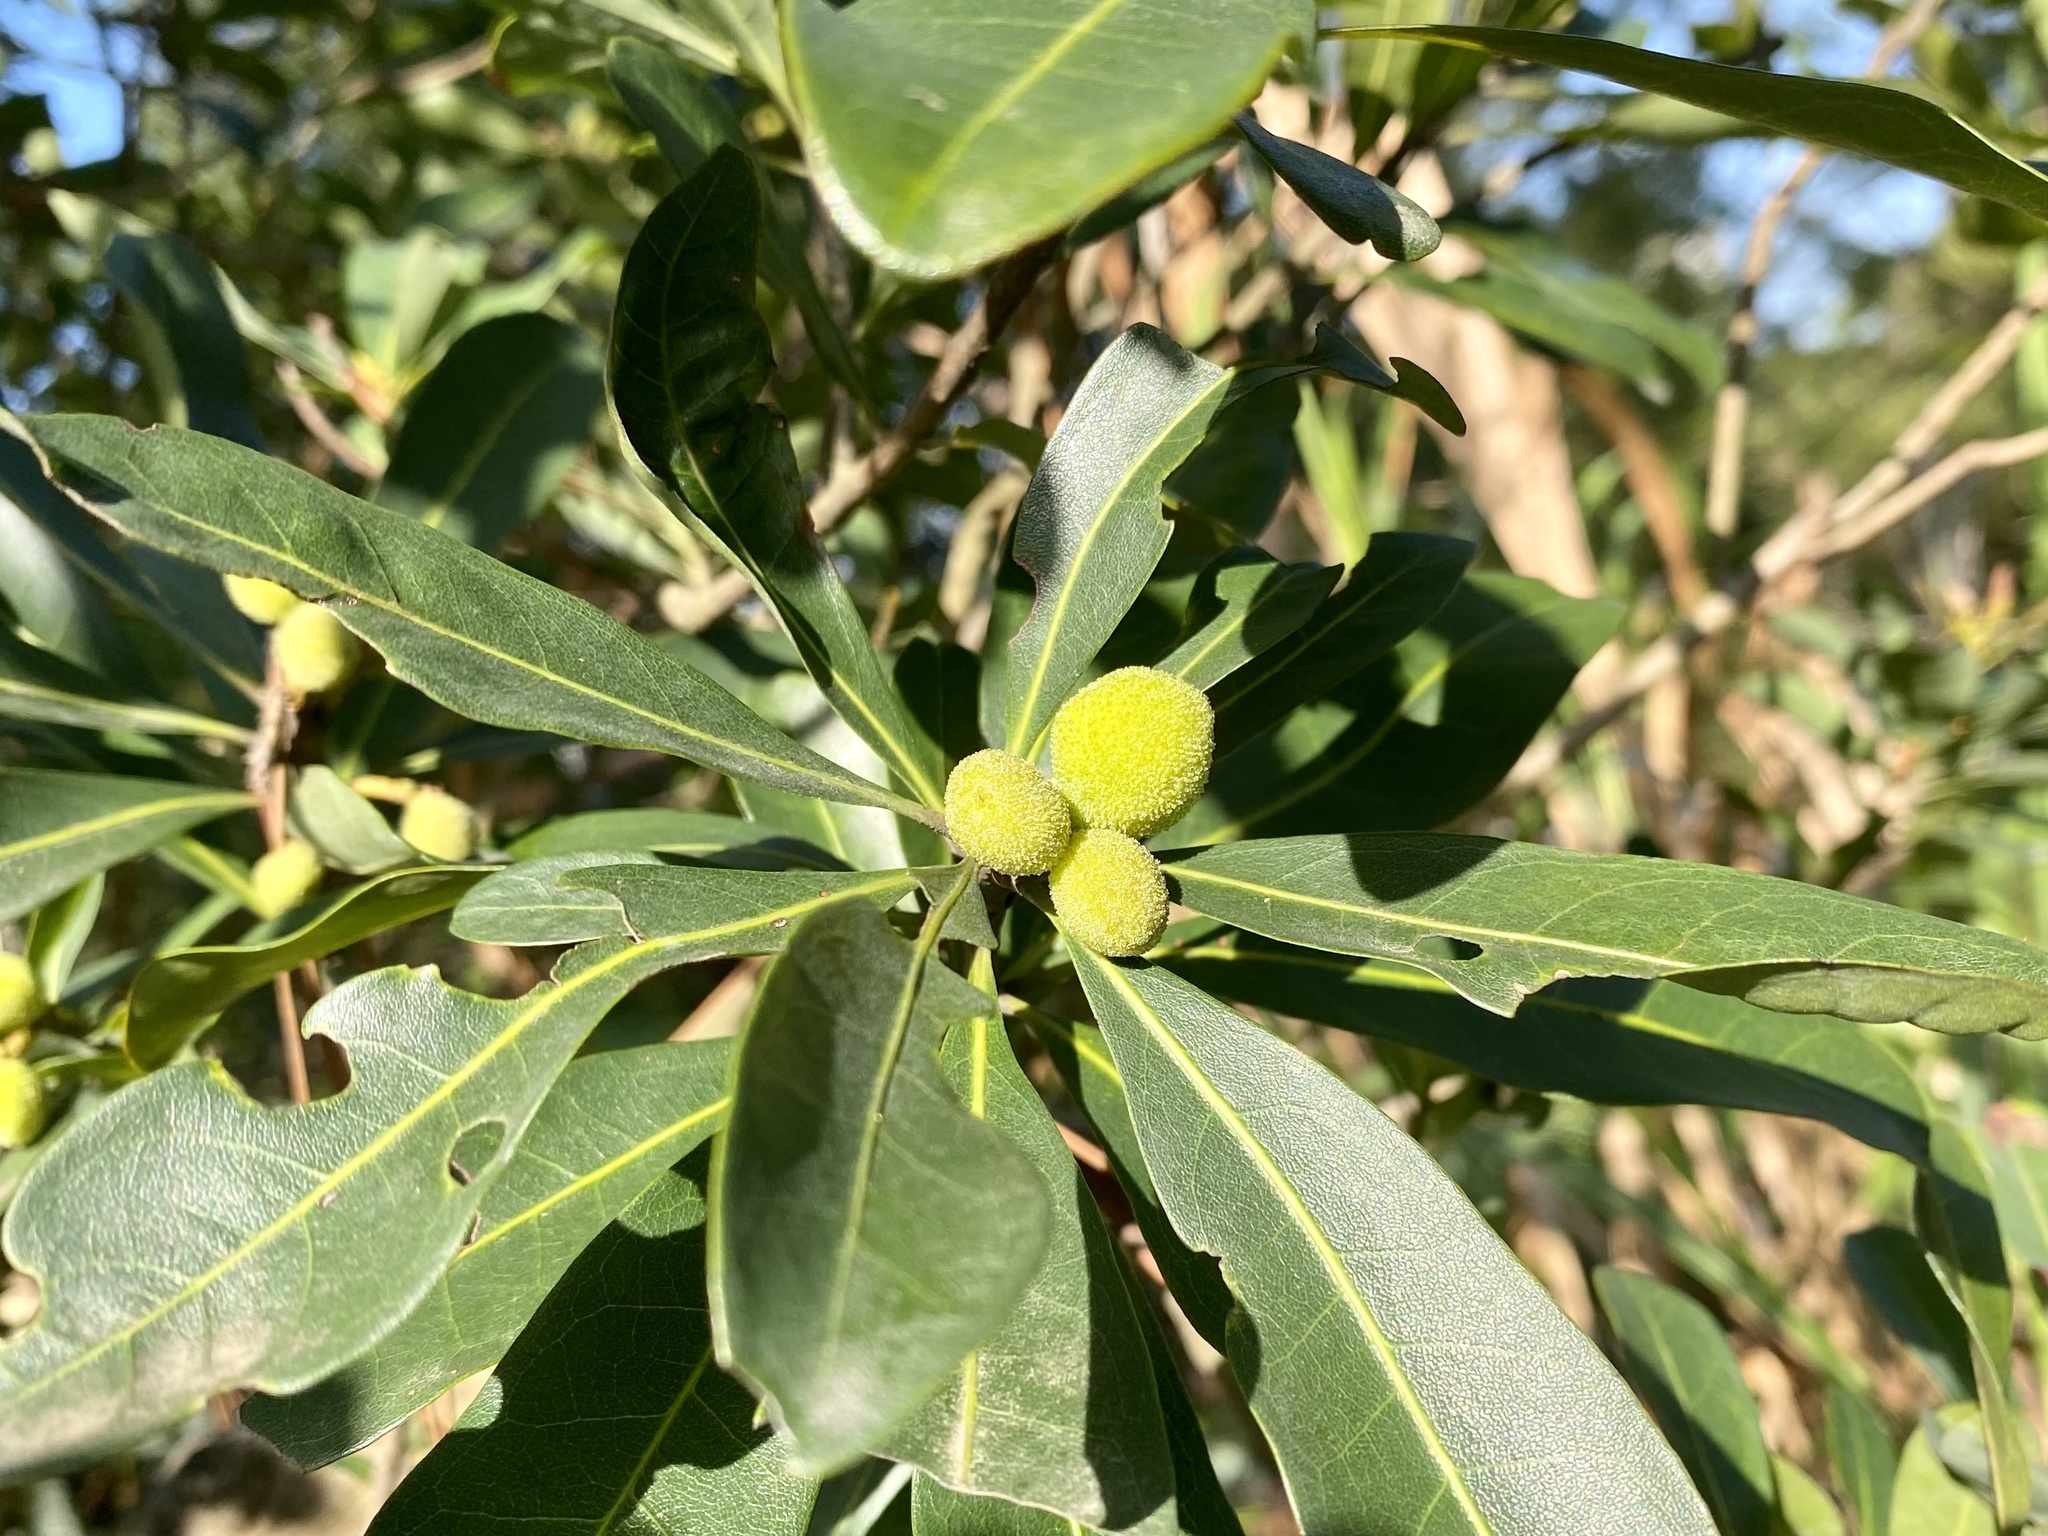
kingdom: Plantae
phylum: Tracheophyta
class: Magnoliopsida
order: Fagales
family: Myricaceae
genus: Morella
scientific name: Morella rubra
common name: Red bayberry
